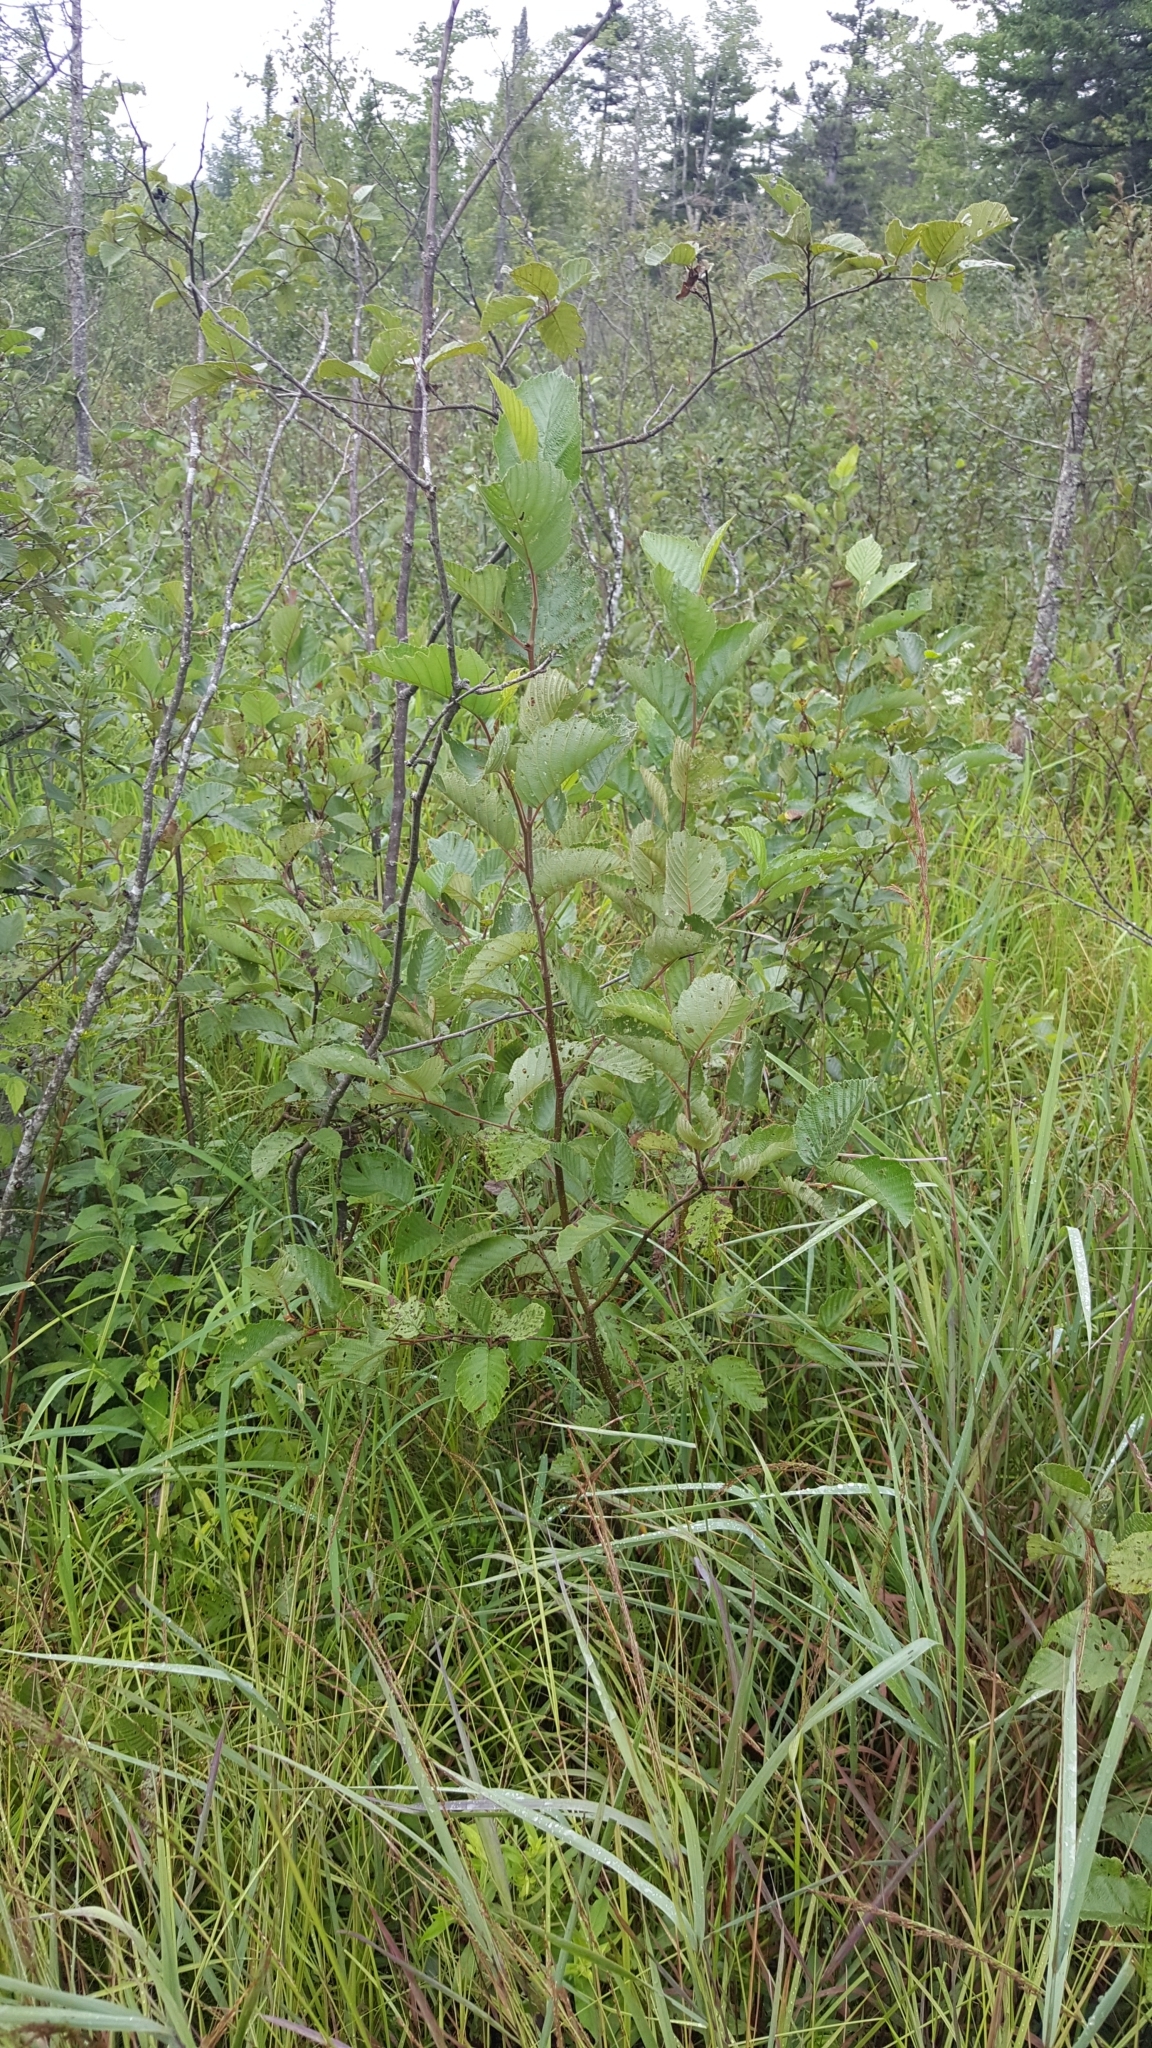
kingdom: Plantae
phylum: Tracheophyta
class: Magnoliopsida
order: Fagales
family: Betulaceae
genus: Alnus
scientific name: Alnus incana
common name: Grey alder
